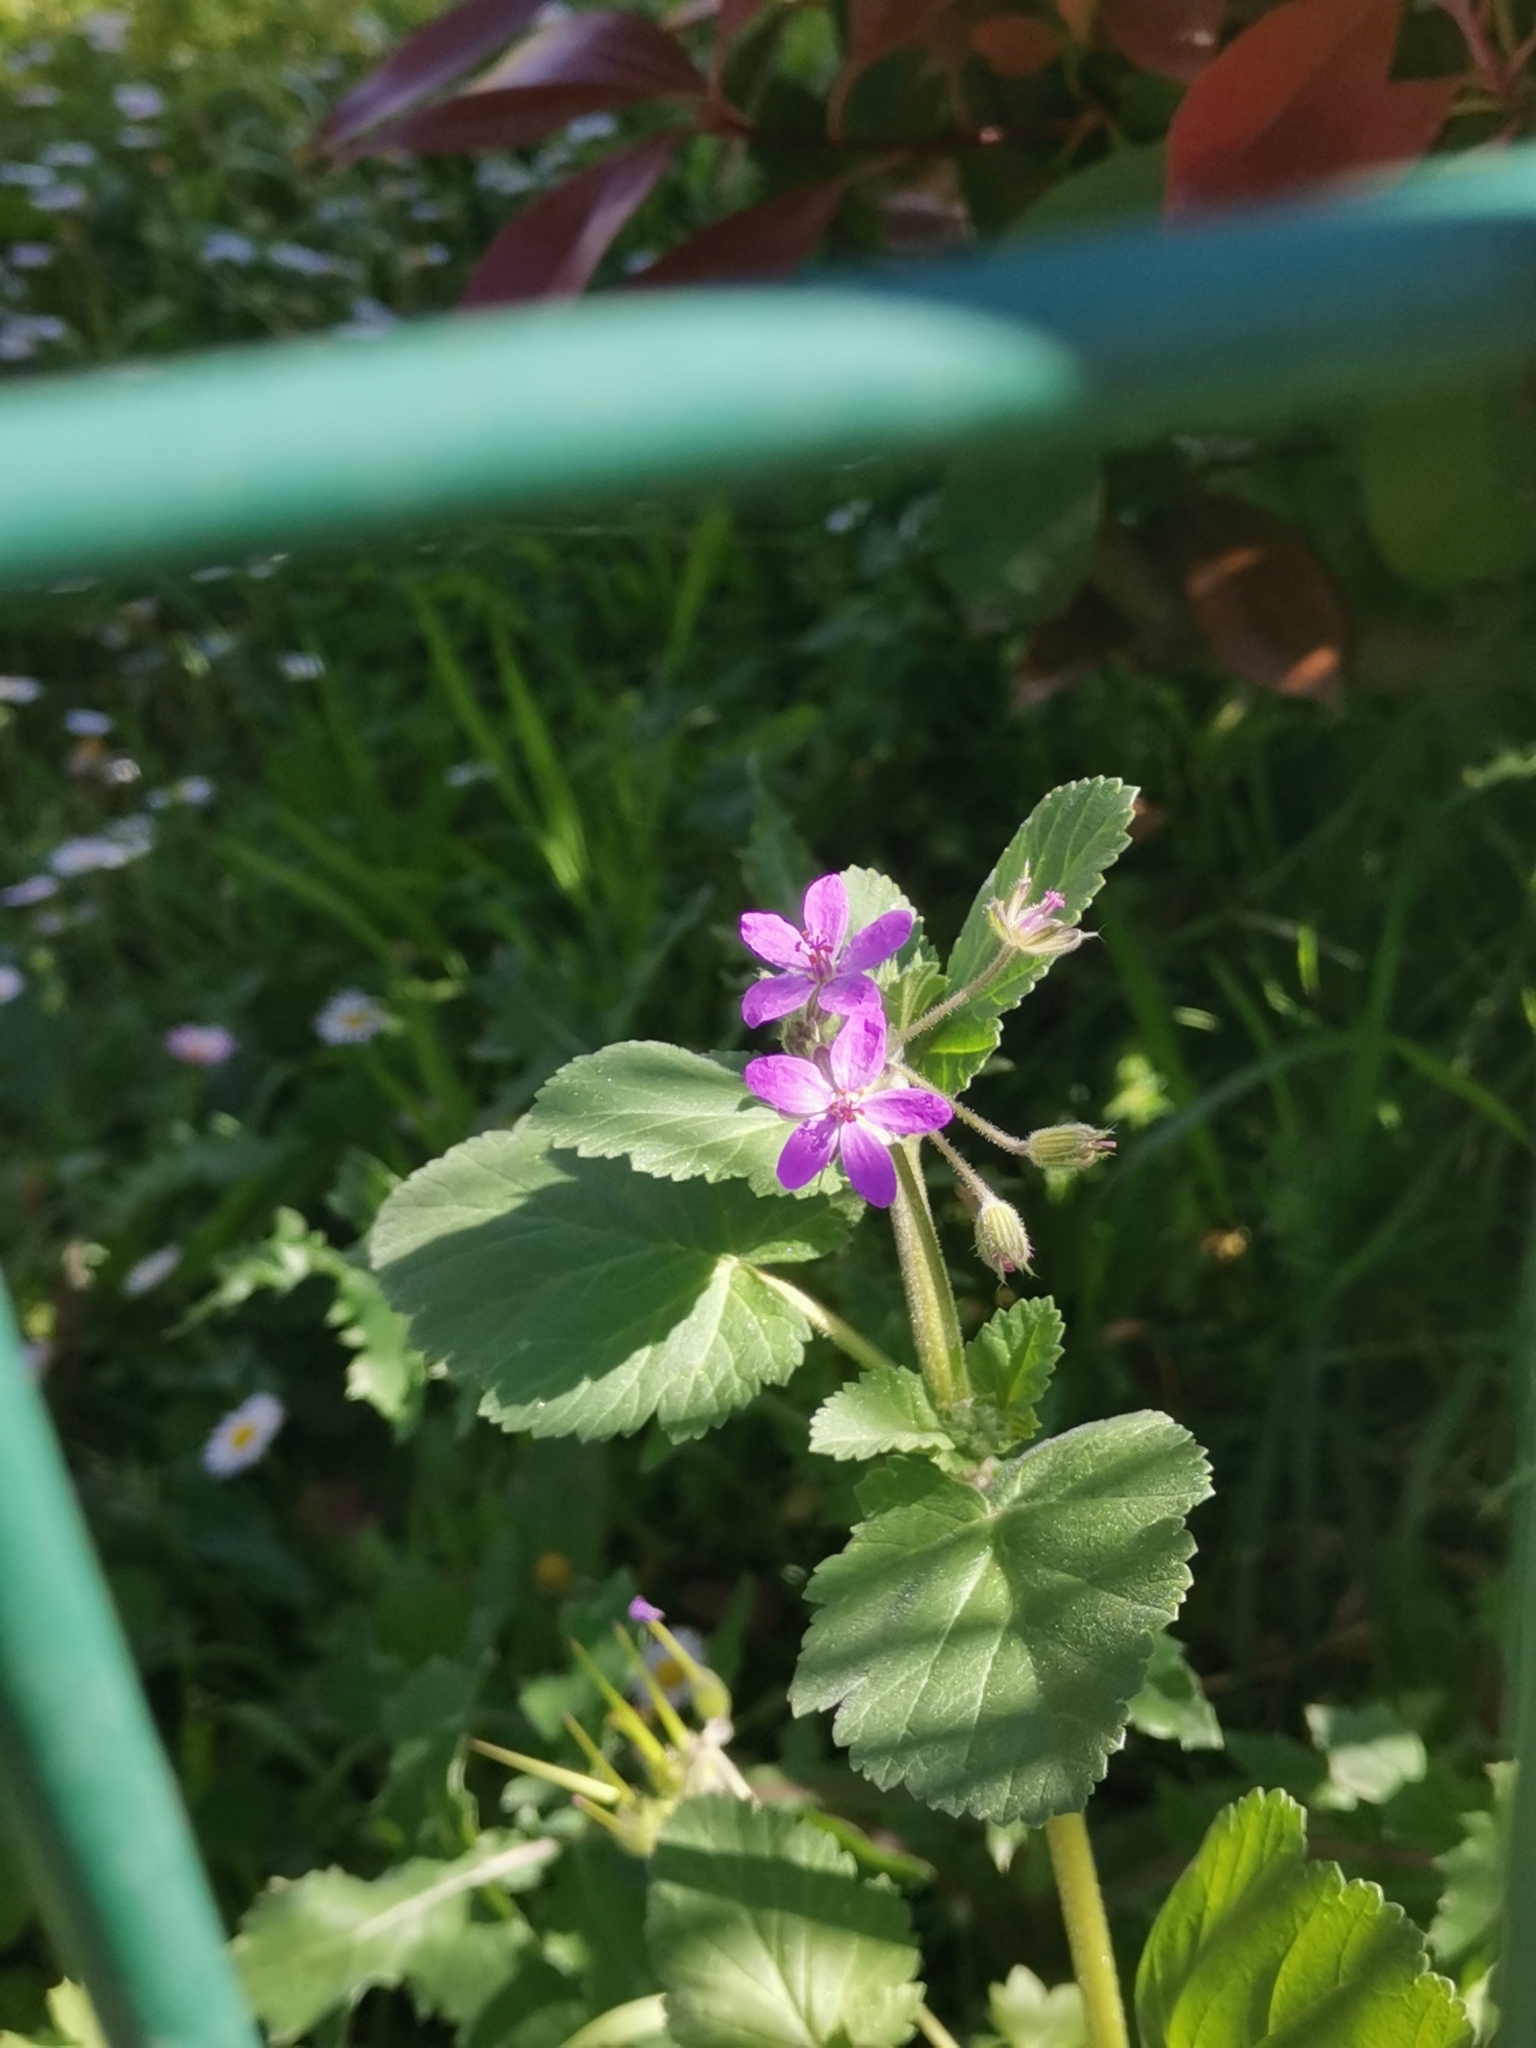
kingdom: Plantae
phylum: Tracheophyta
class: Magnoliopsida
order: Geraniales
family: Geraniaceae
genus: Erodium
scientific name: Erodium malacoides
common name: Soft stork's-bill
